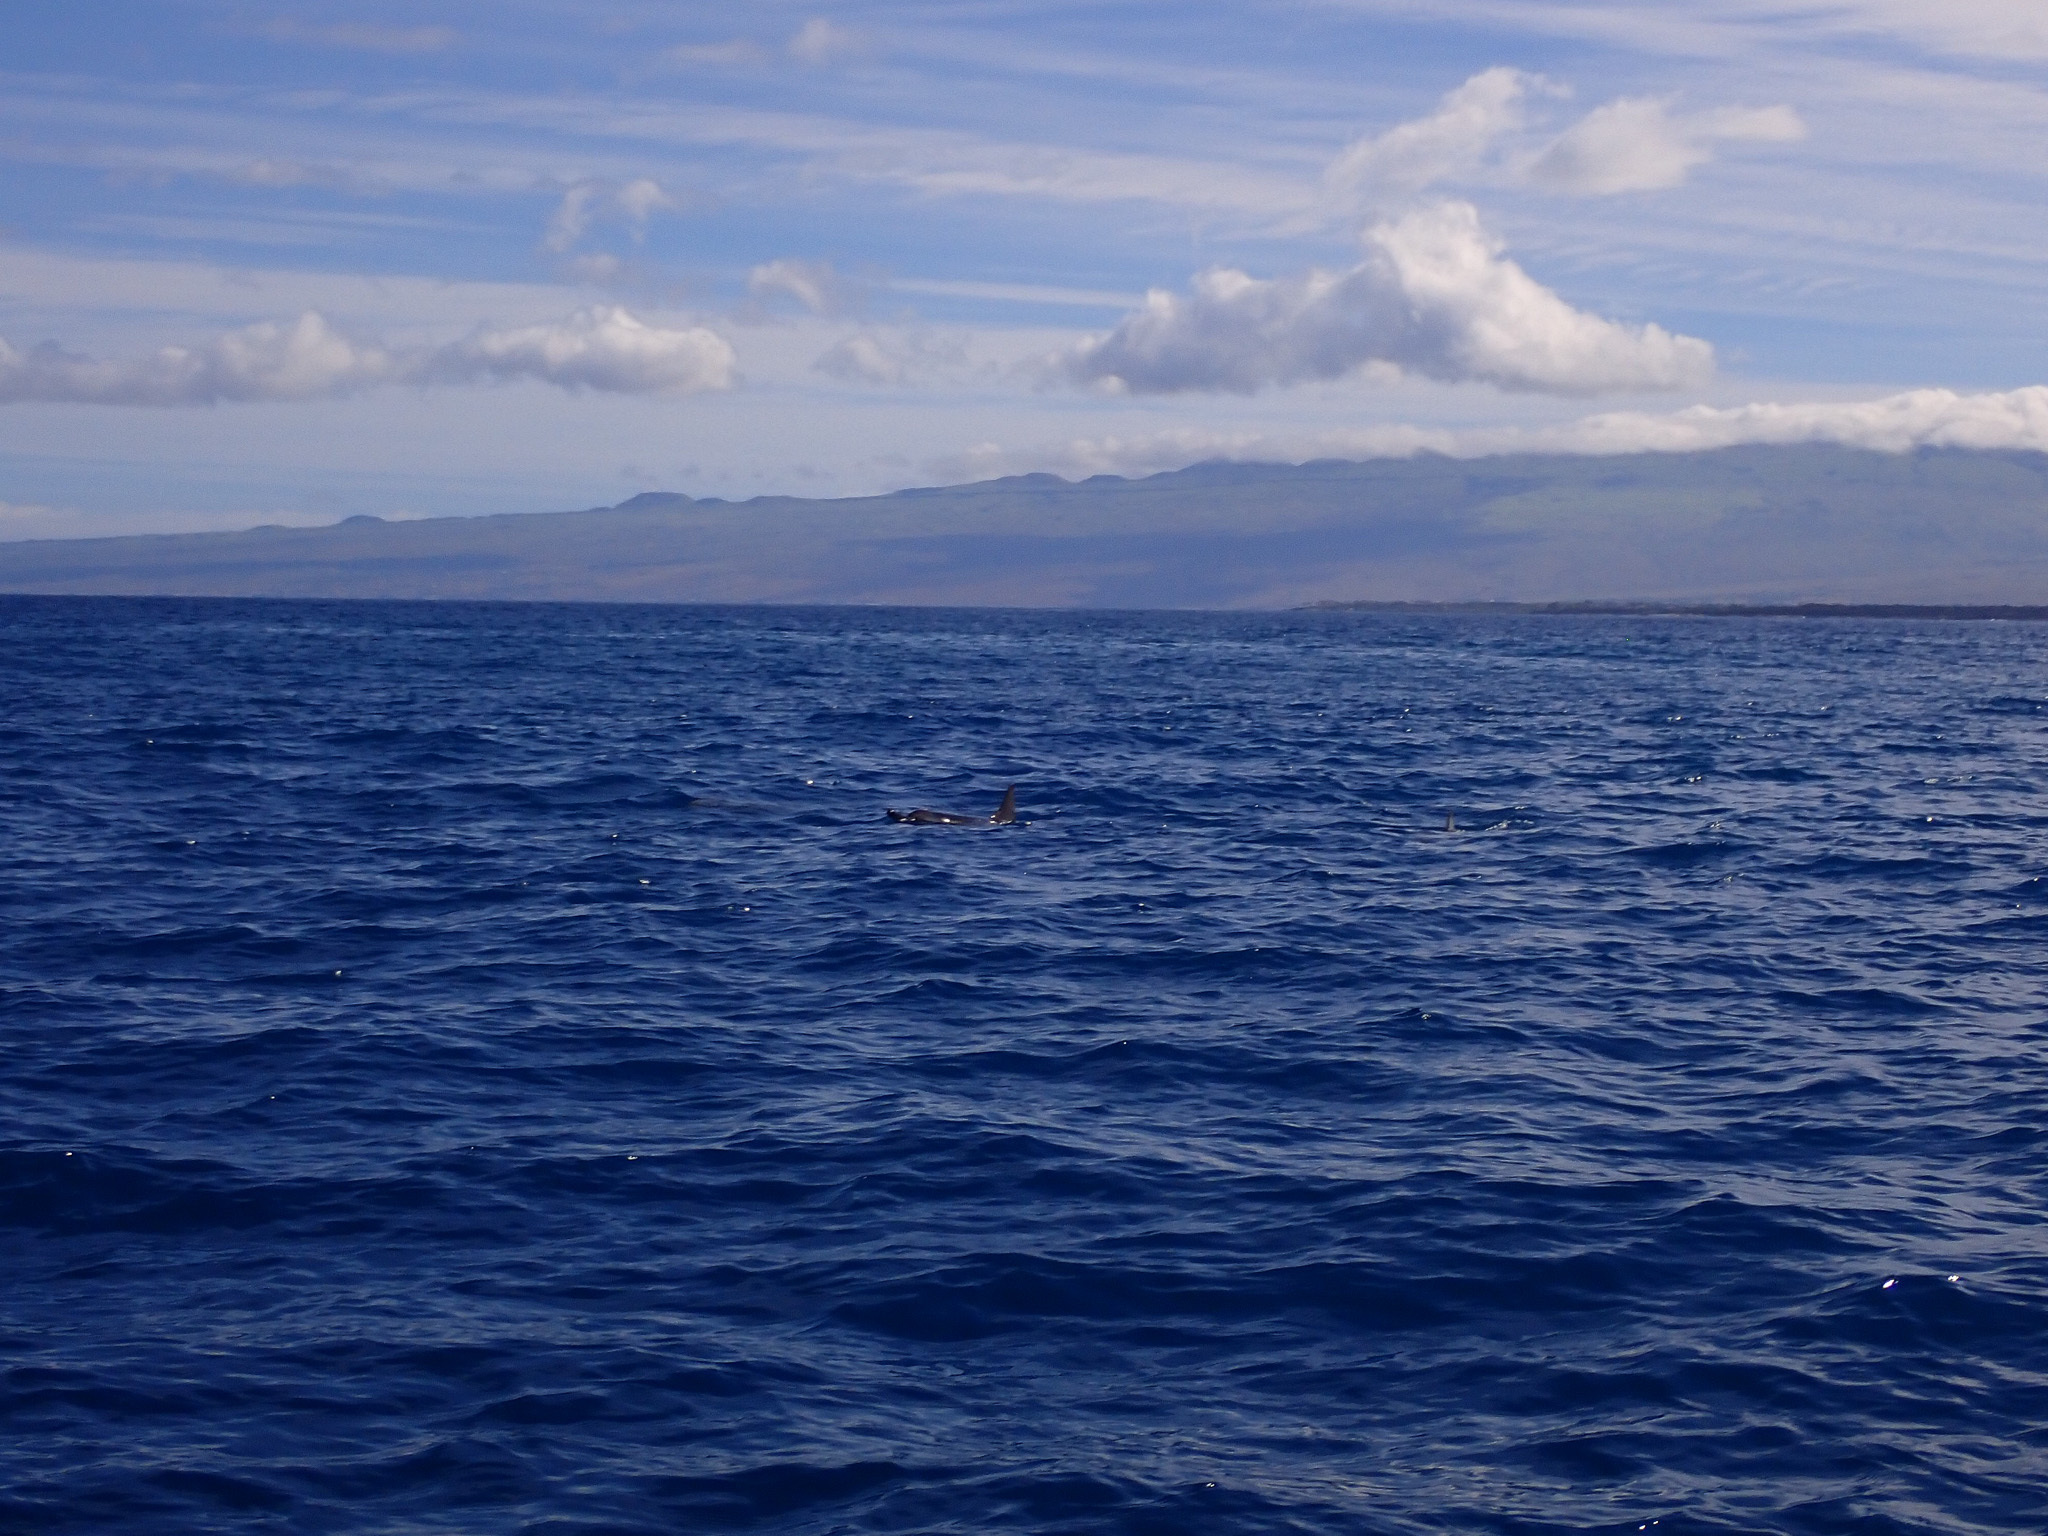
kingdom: Animalia
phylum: Chordata
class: Mammalia
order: Cetacea
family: Delphinidae
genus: Stenella
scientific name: Stenella longirostris
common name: Spinner dolphin
